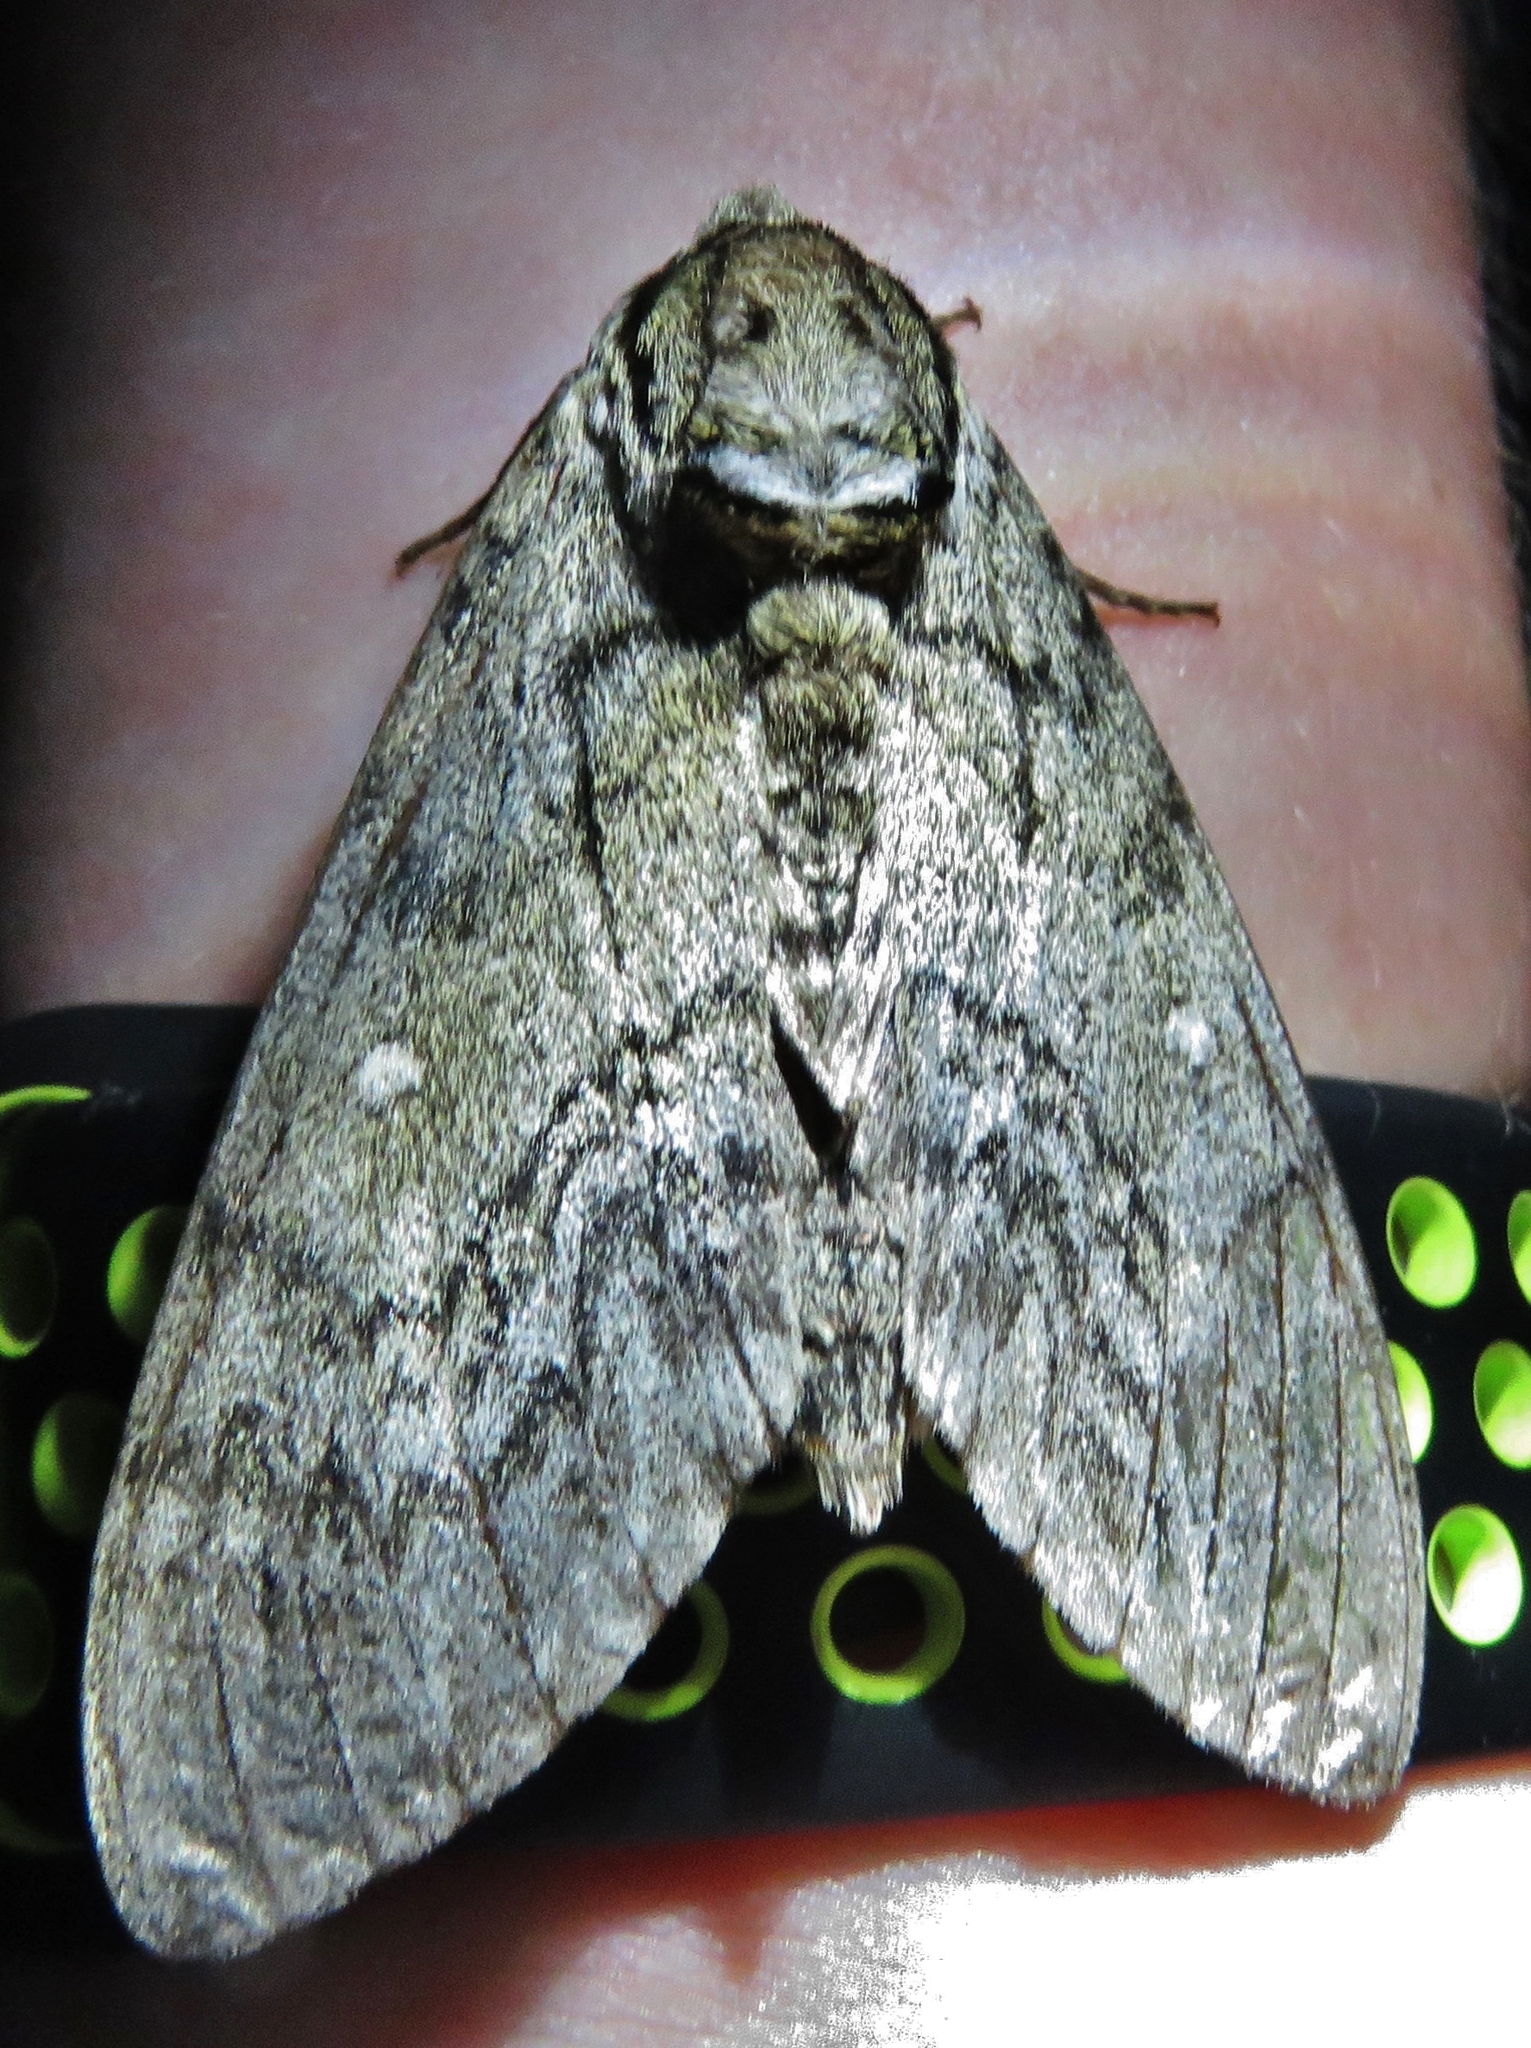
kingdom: Animalia
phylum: Arthropoda
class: Insecta
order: Lepidoptera
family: Sphingidae
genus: Ceratomia
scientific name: Ceratomia undulosa
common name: Waved sphinx
